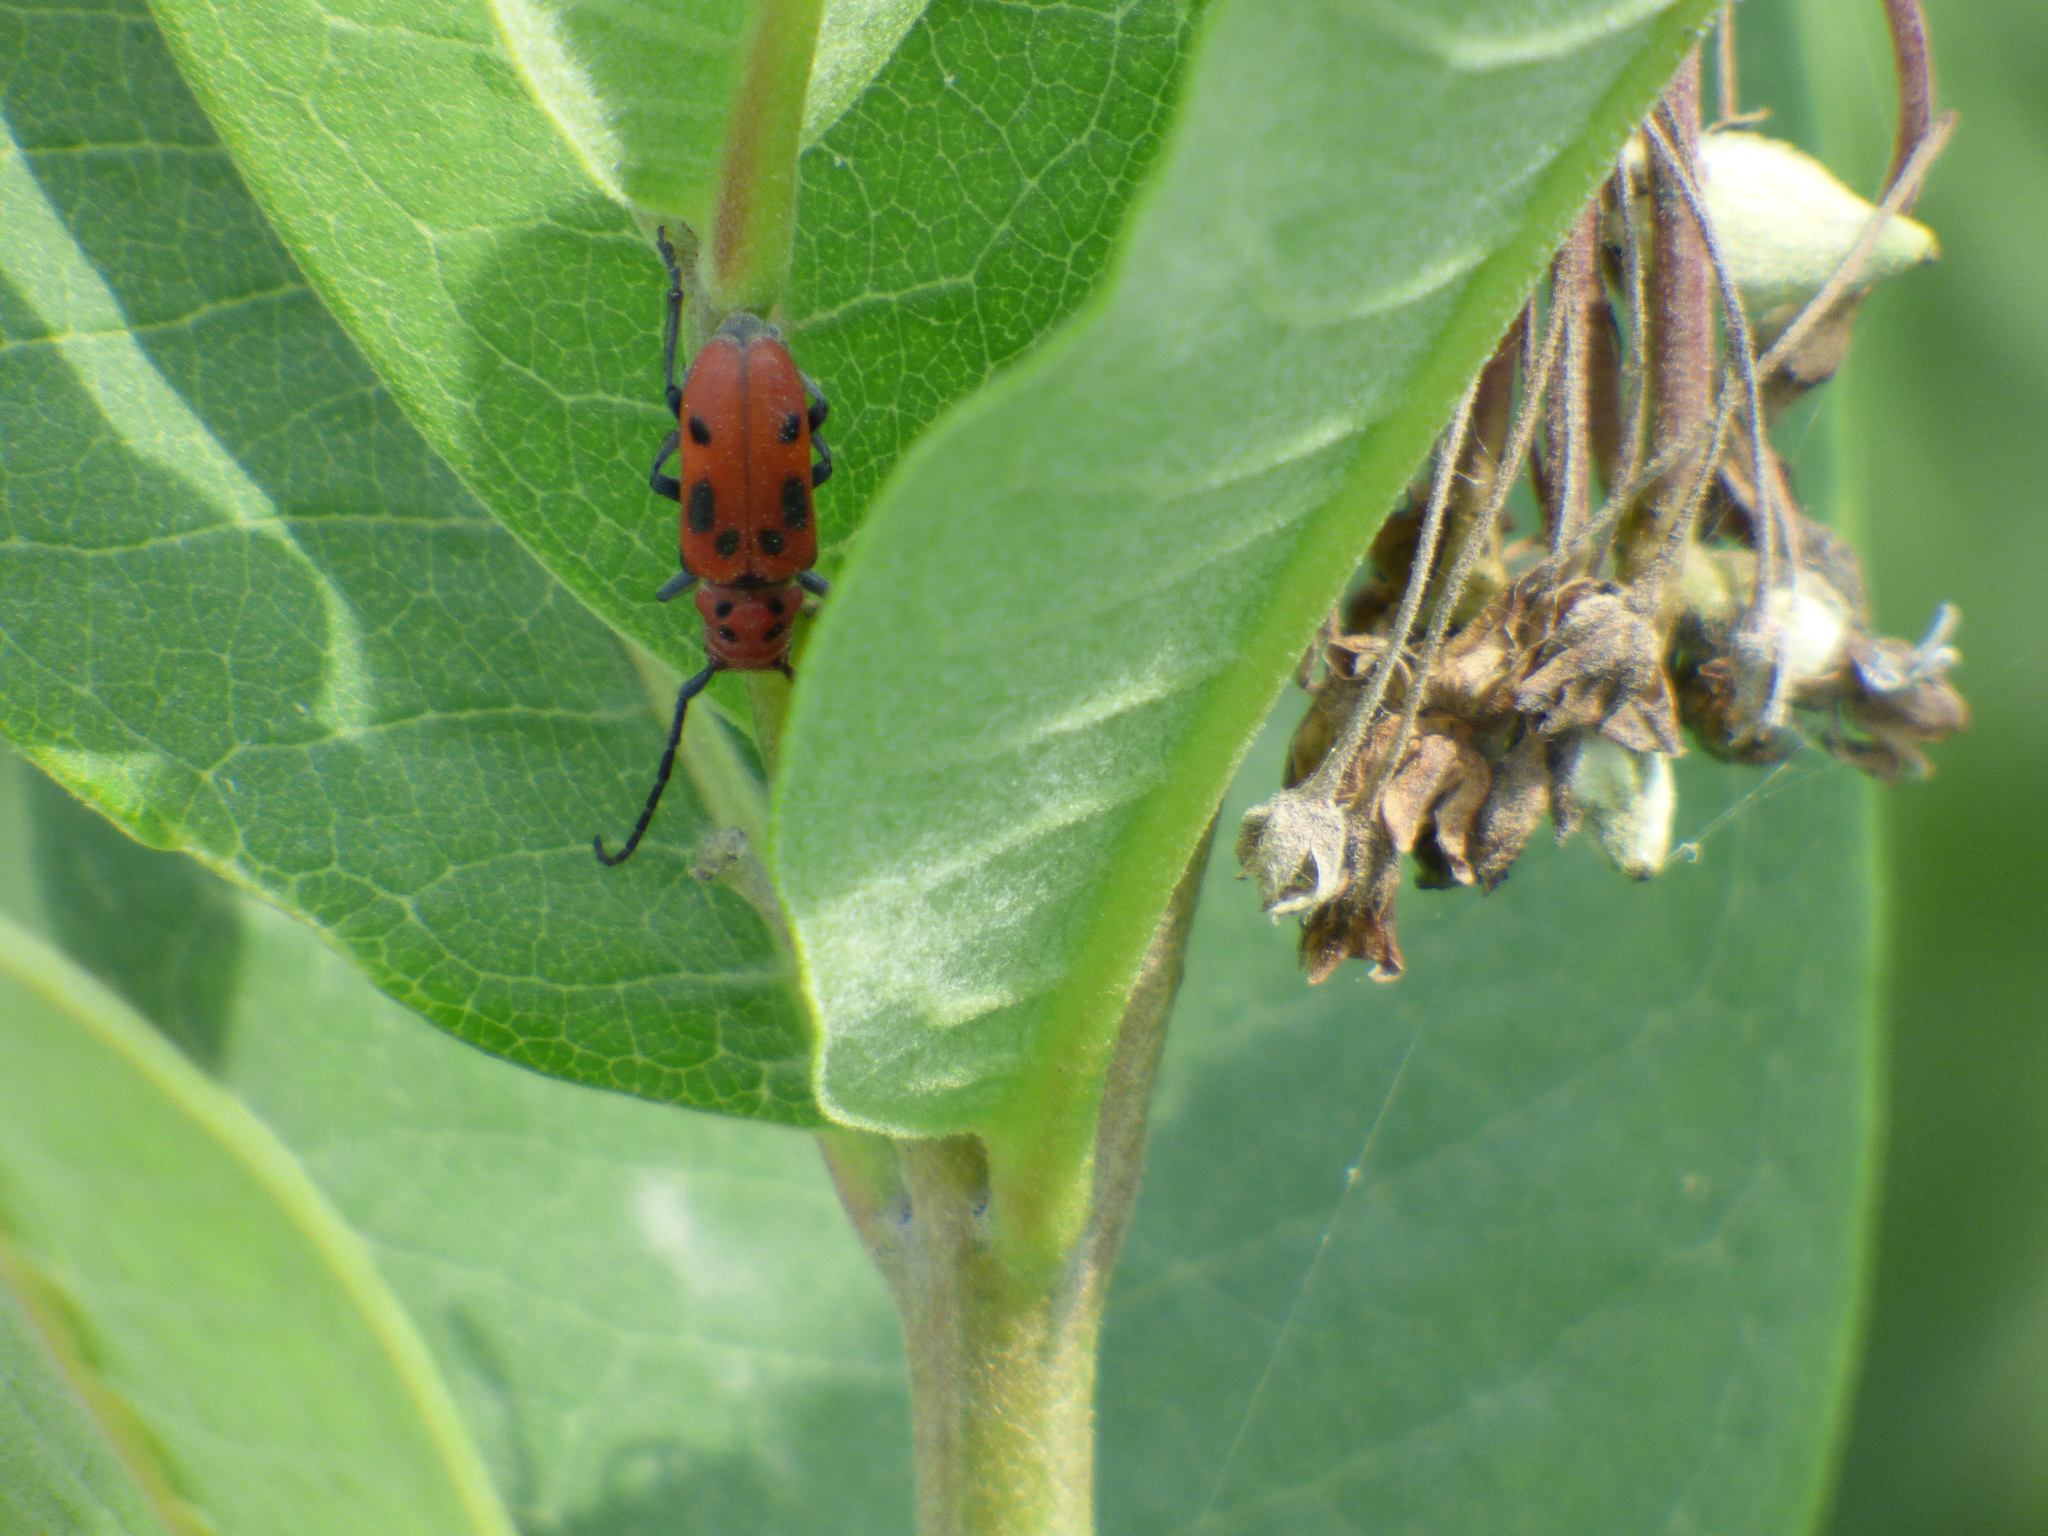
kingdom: Animalia
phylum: Arthropoda
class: Insecta
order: Coleoptera
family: Cerambycidae
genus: Tetraopes
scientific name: Tetraopes tetrophthalmus
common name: Red milkweed beetle
